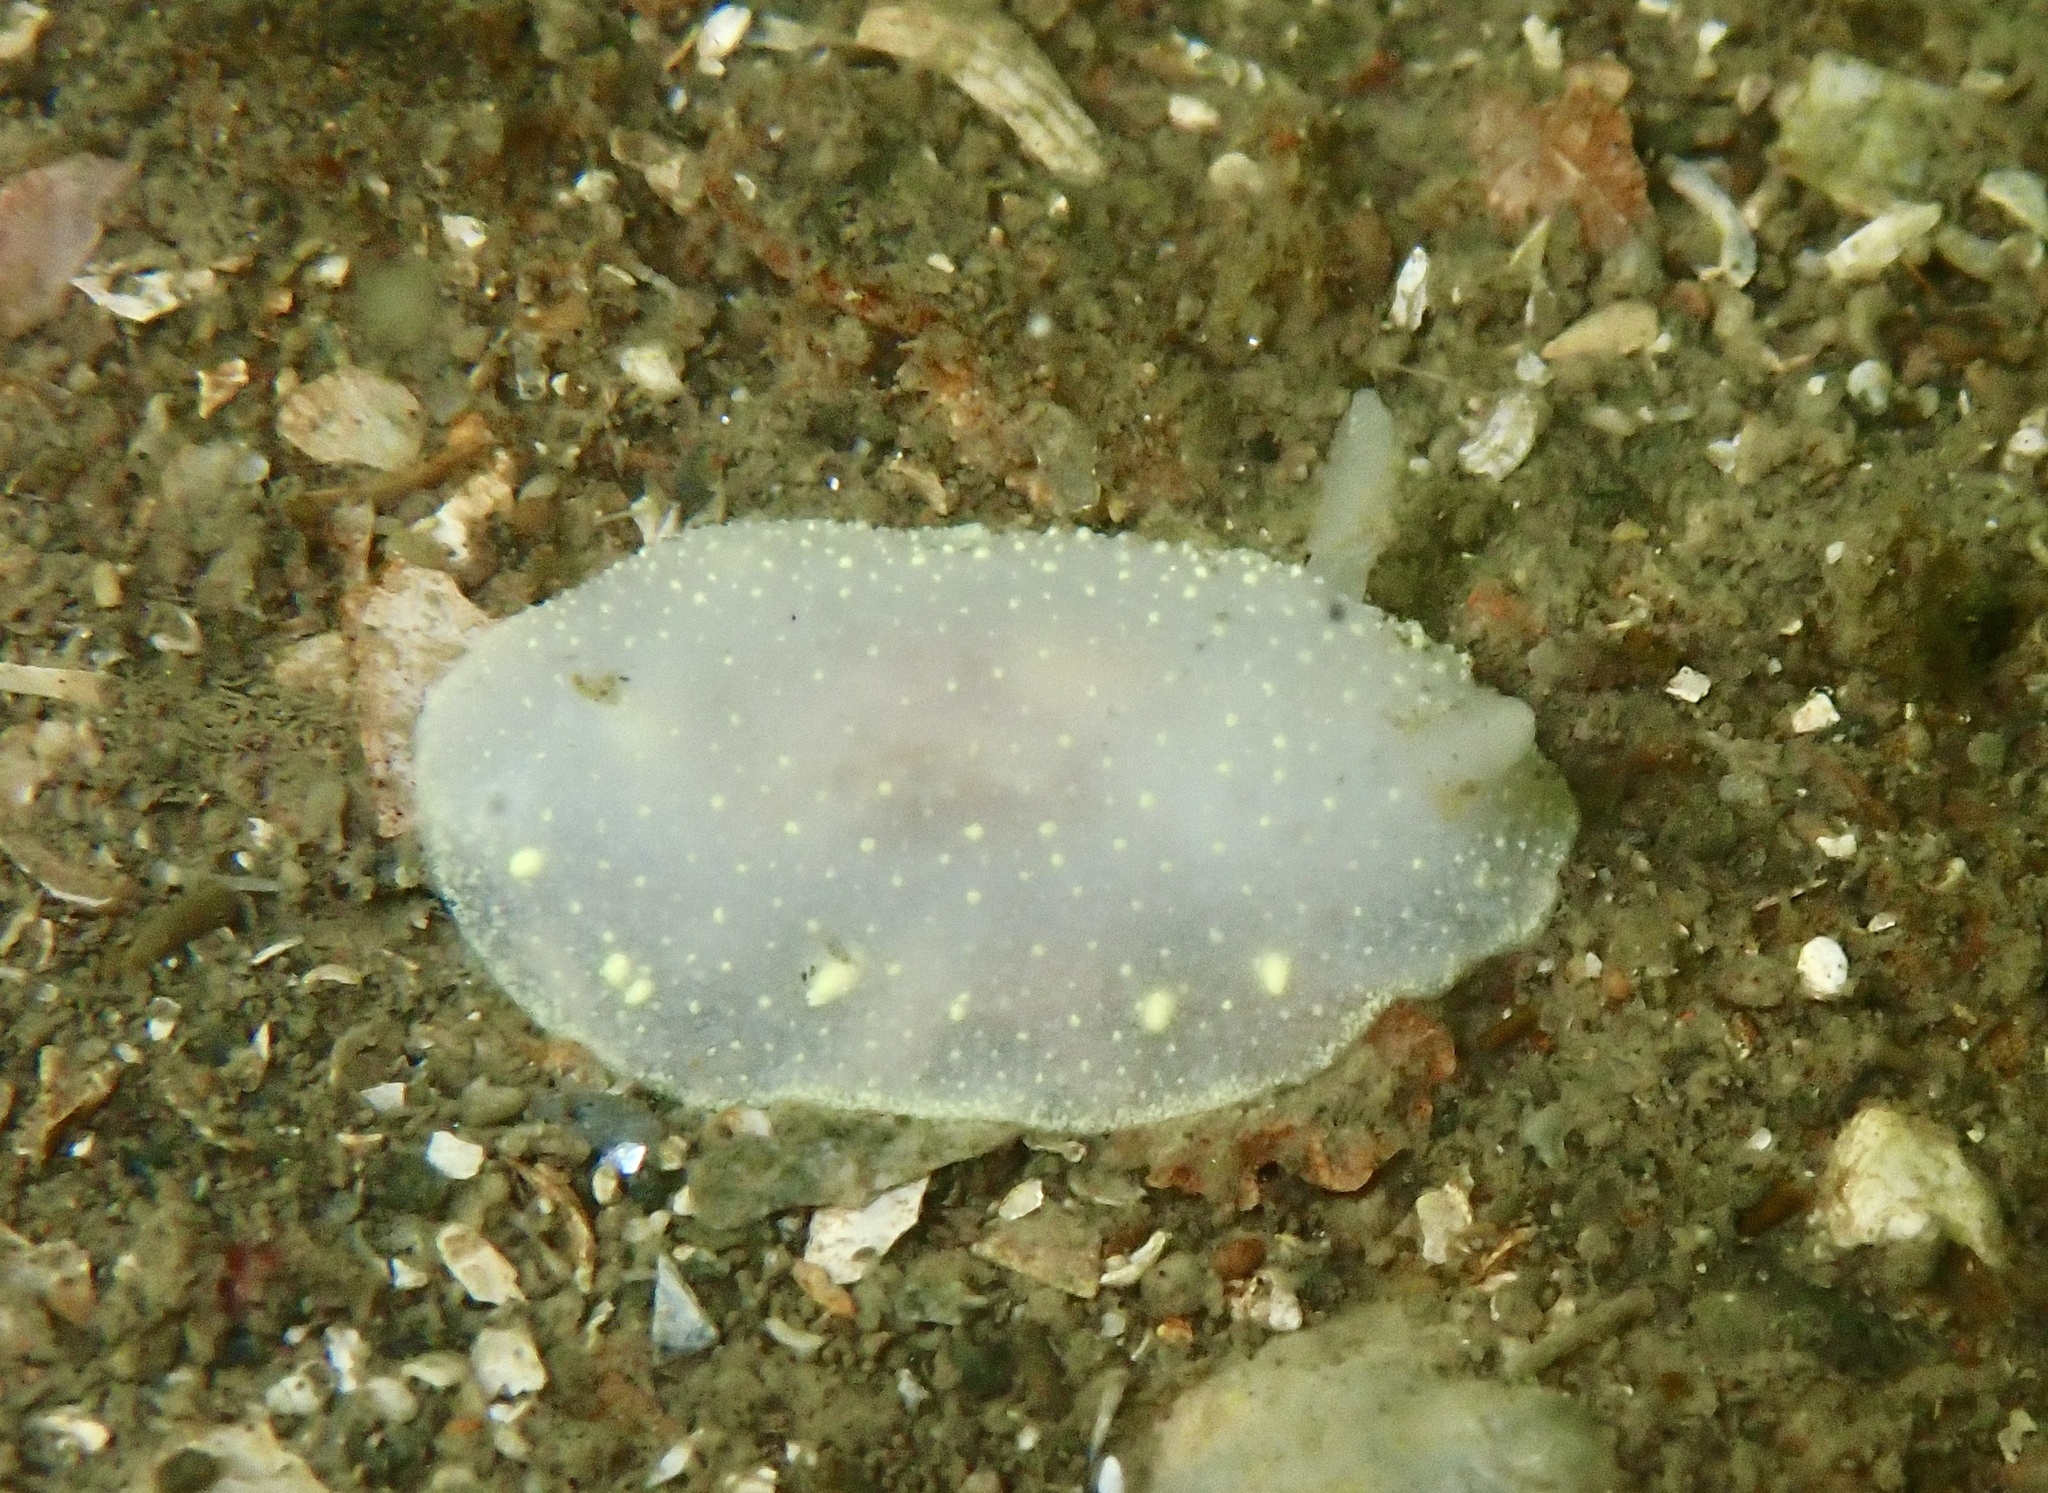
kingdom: Animalia
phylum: Mollusca
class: Gastropoda
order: Nudibranchia
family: Cadlinidae
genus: Cadlina
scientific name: Cadlina laevis
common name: White atlantic cadlina
